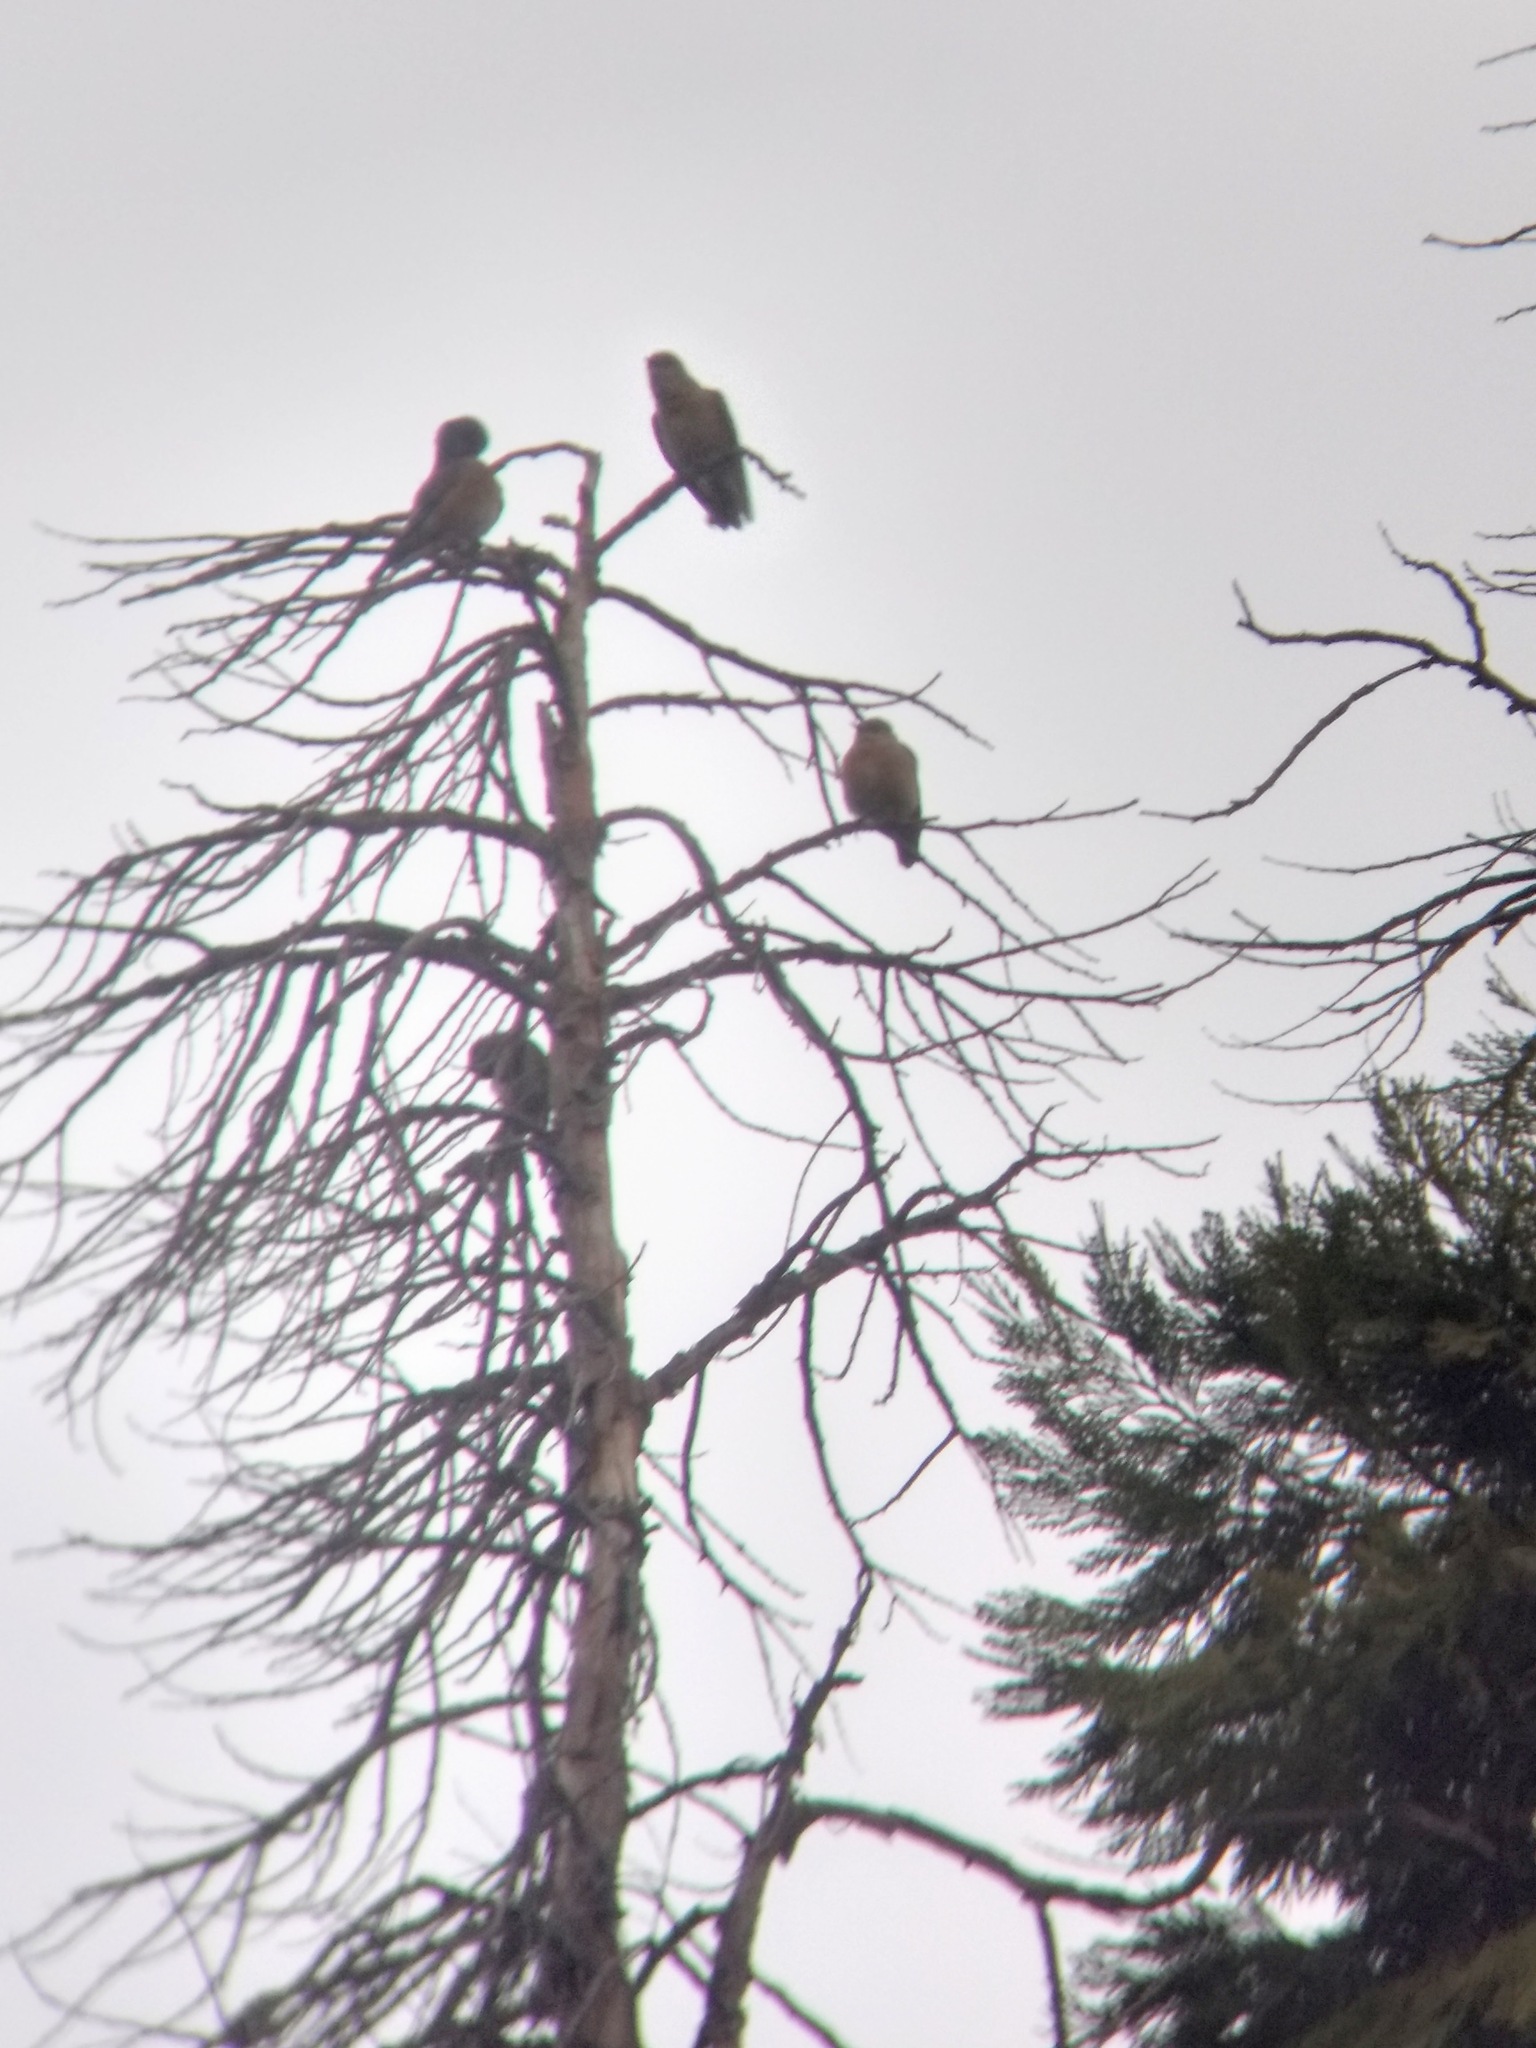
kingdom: Animalia
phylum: Chordata
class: Aves
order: Passeriformes
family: Turdidae
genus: Sialia
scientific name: Sialia mexicana
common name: Western bluebird
